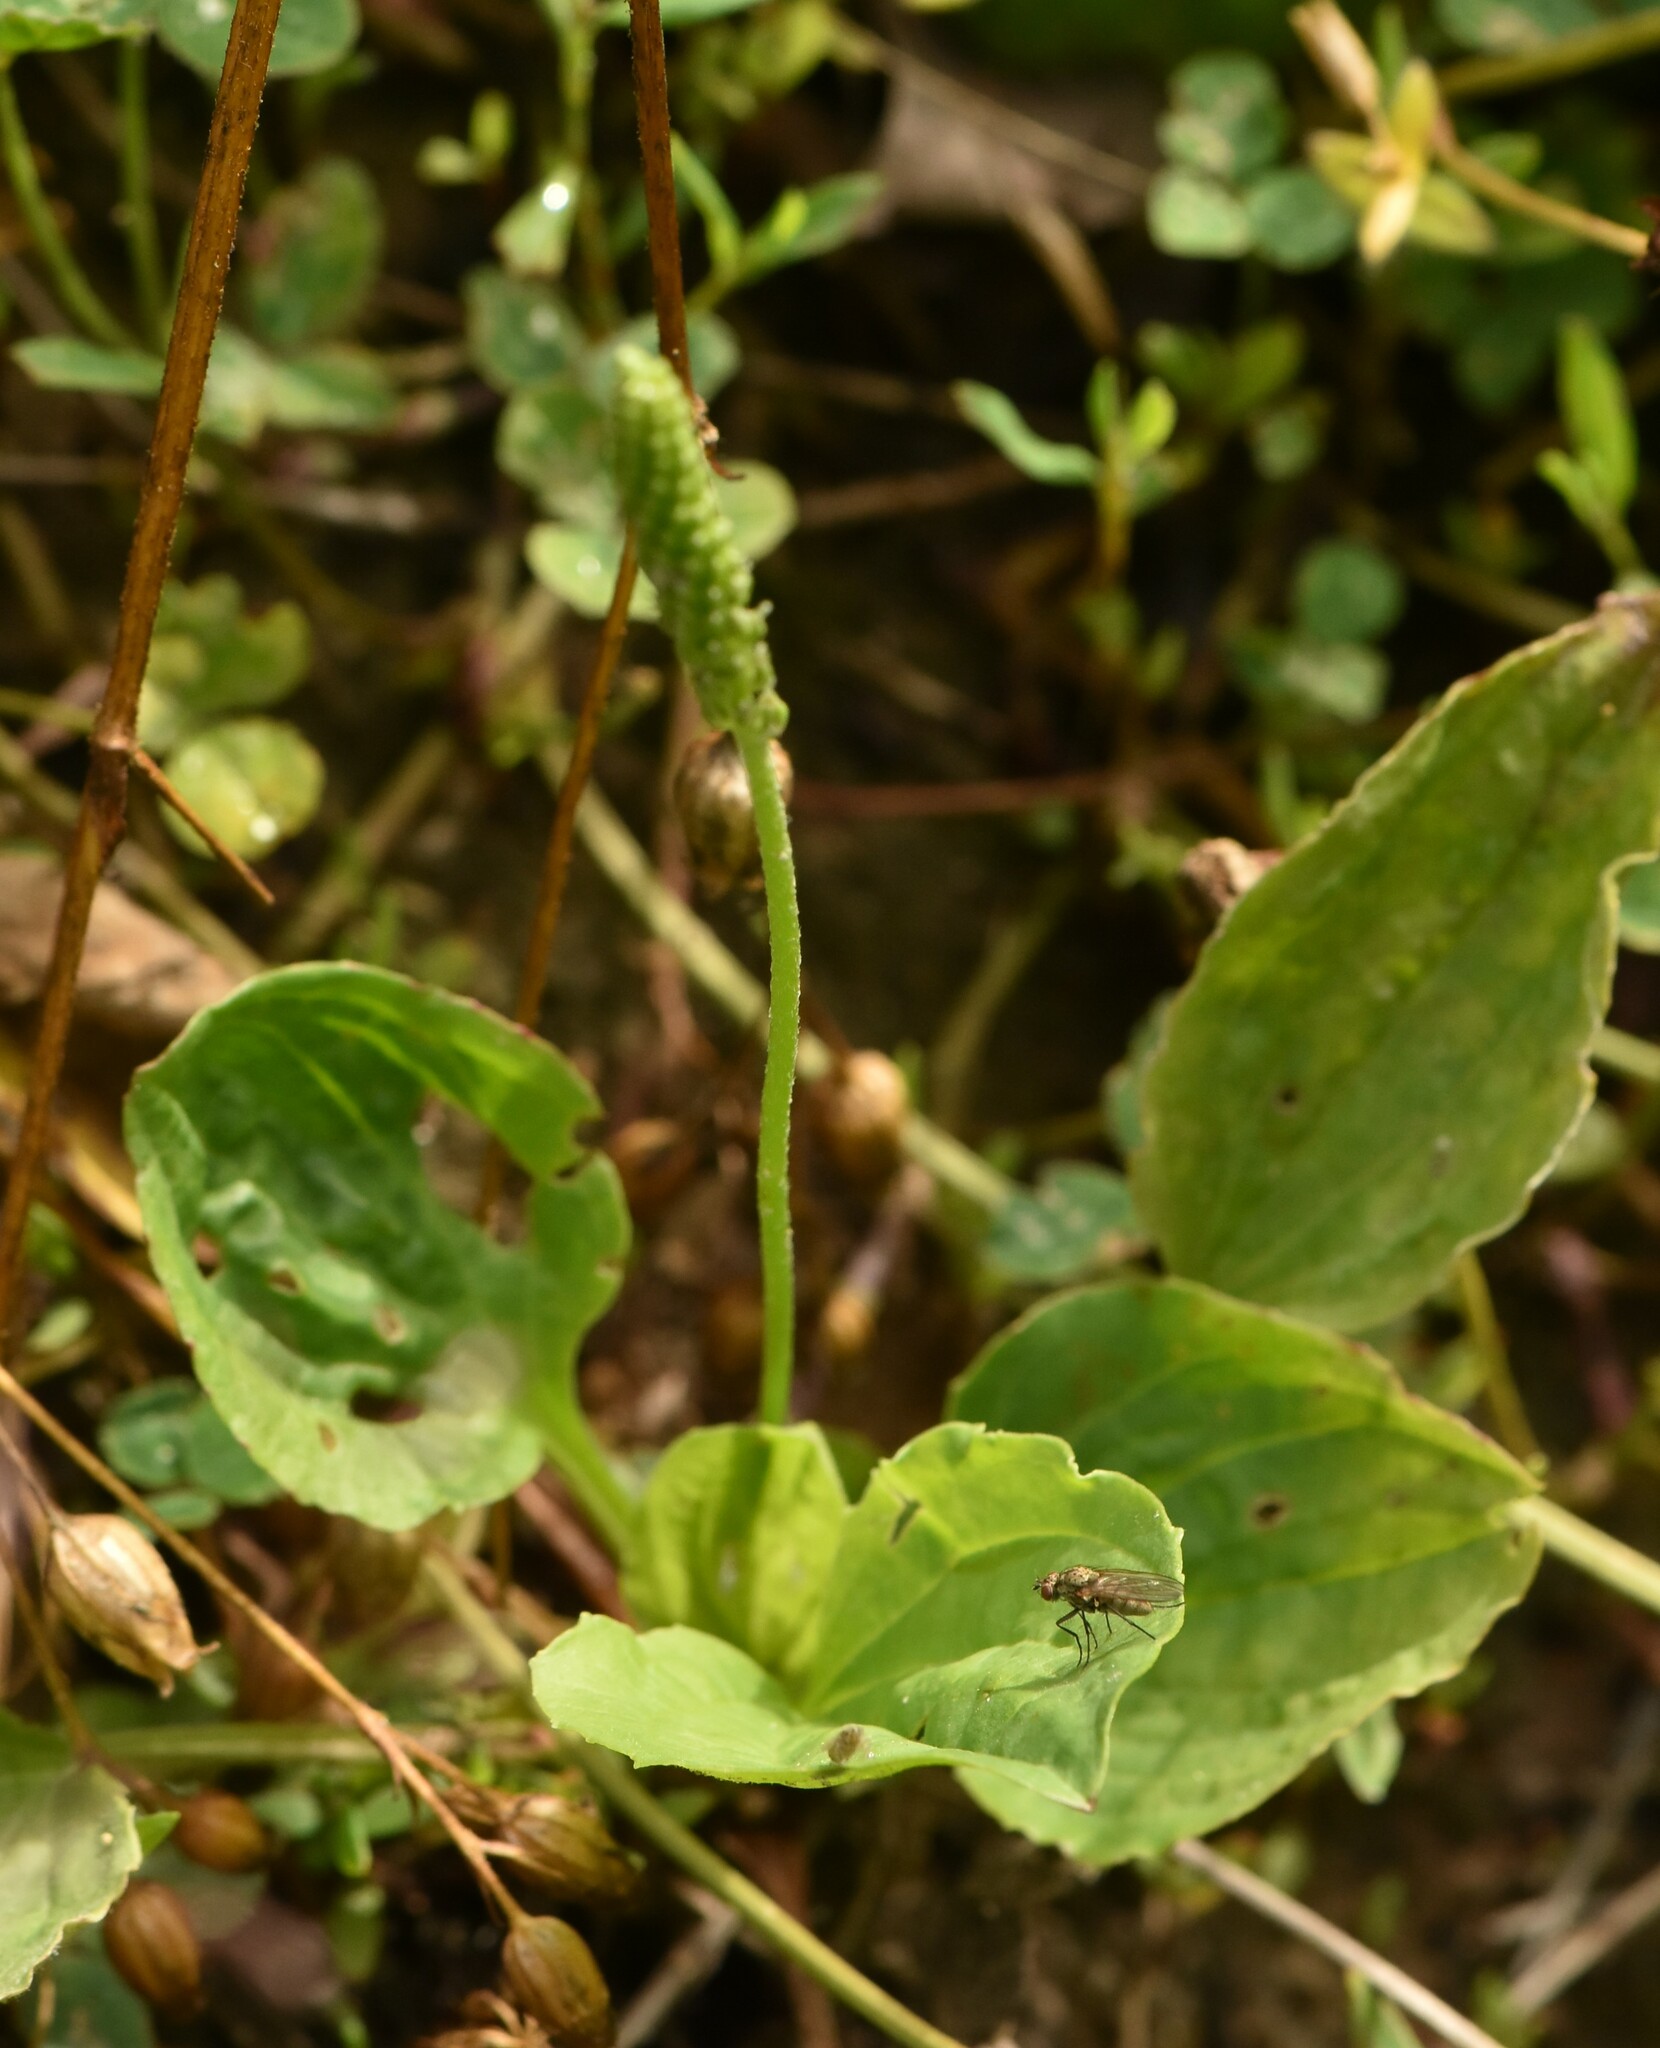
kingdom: Plantae
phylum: Tracheophyta
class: Magnoliopsida
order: Lamiales
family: Plantaginaceae
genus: Plantago
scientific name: Plantago major
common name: Common plantain
